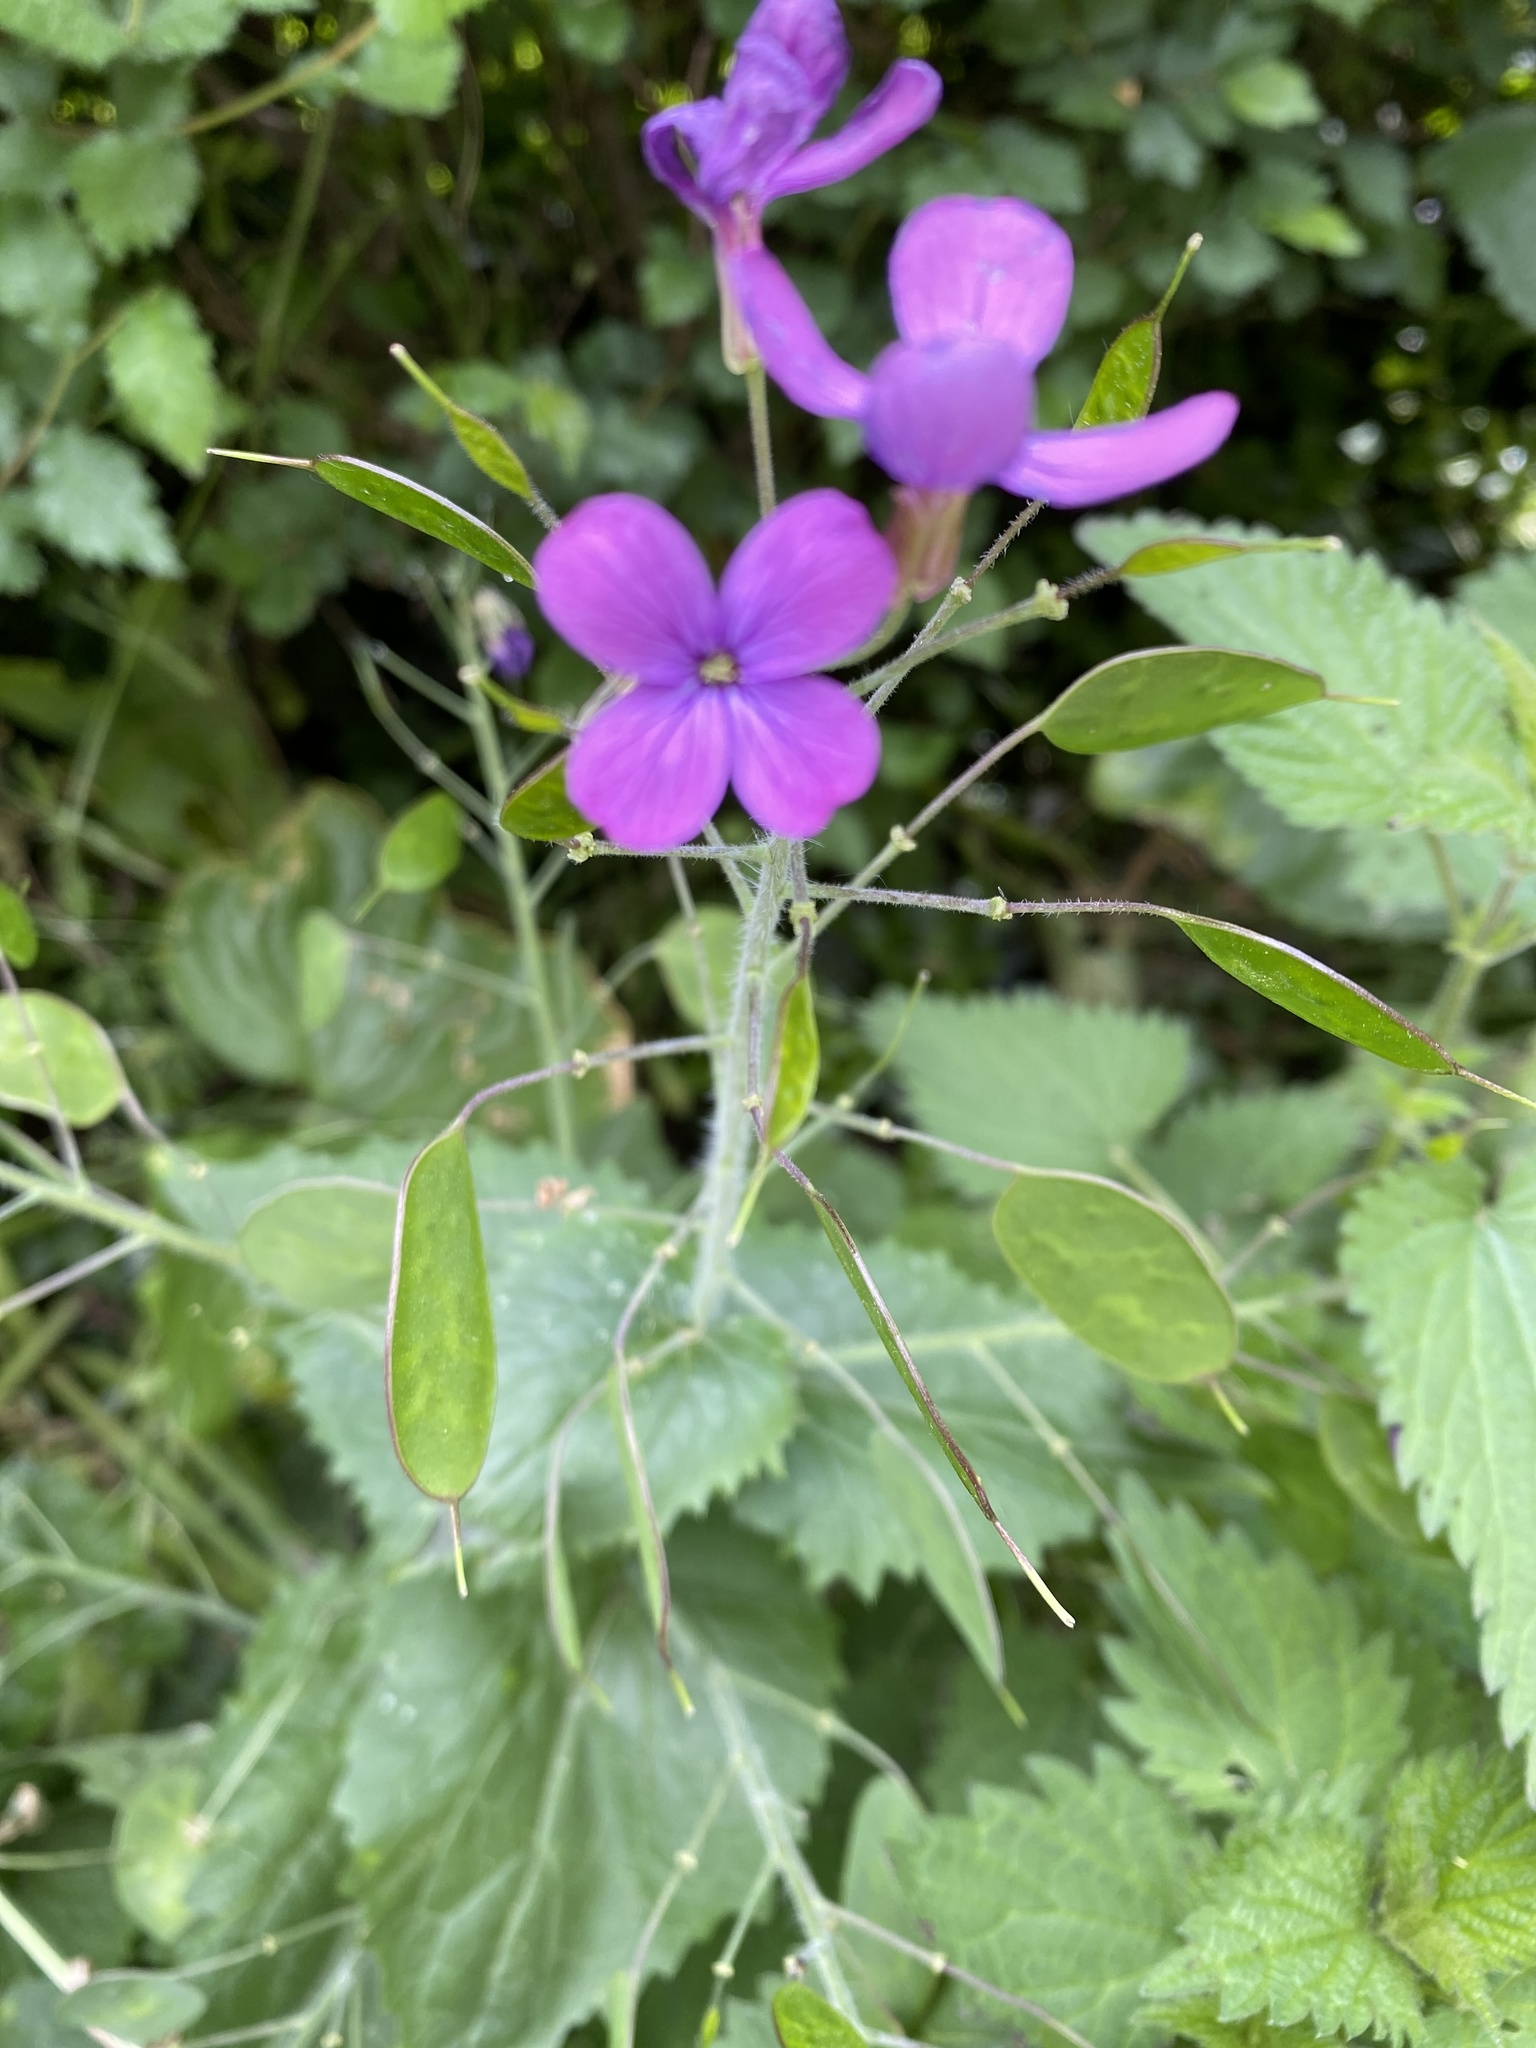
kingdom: Plantae
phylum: Tracheophyta
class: Magnoliopsida
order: Brassicales
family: Brassicaceae
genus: Lunaria
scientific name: Lunaria annua
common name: Honesty
